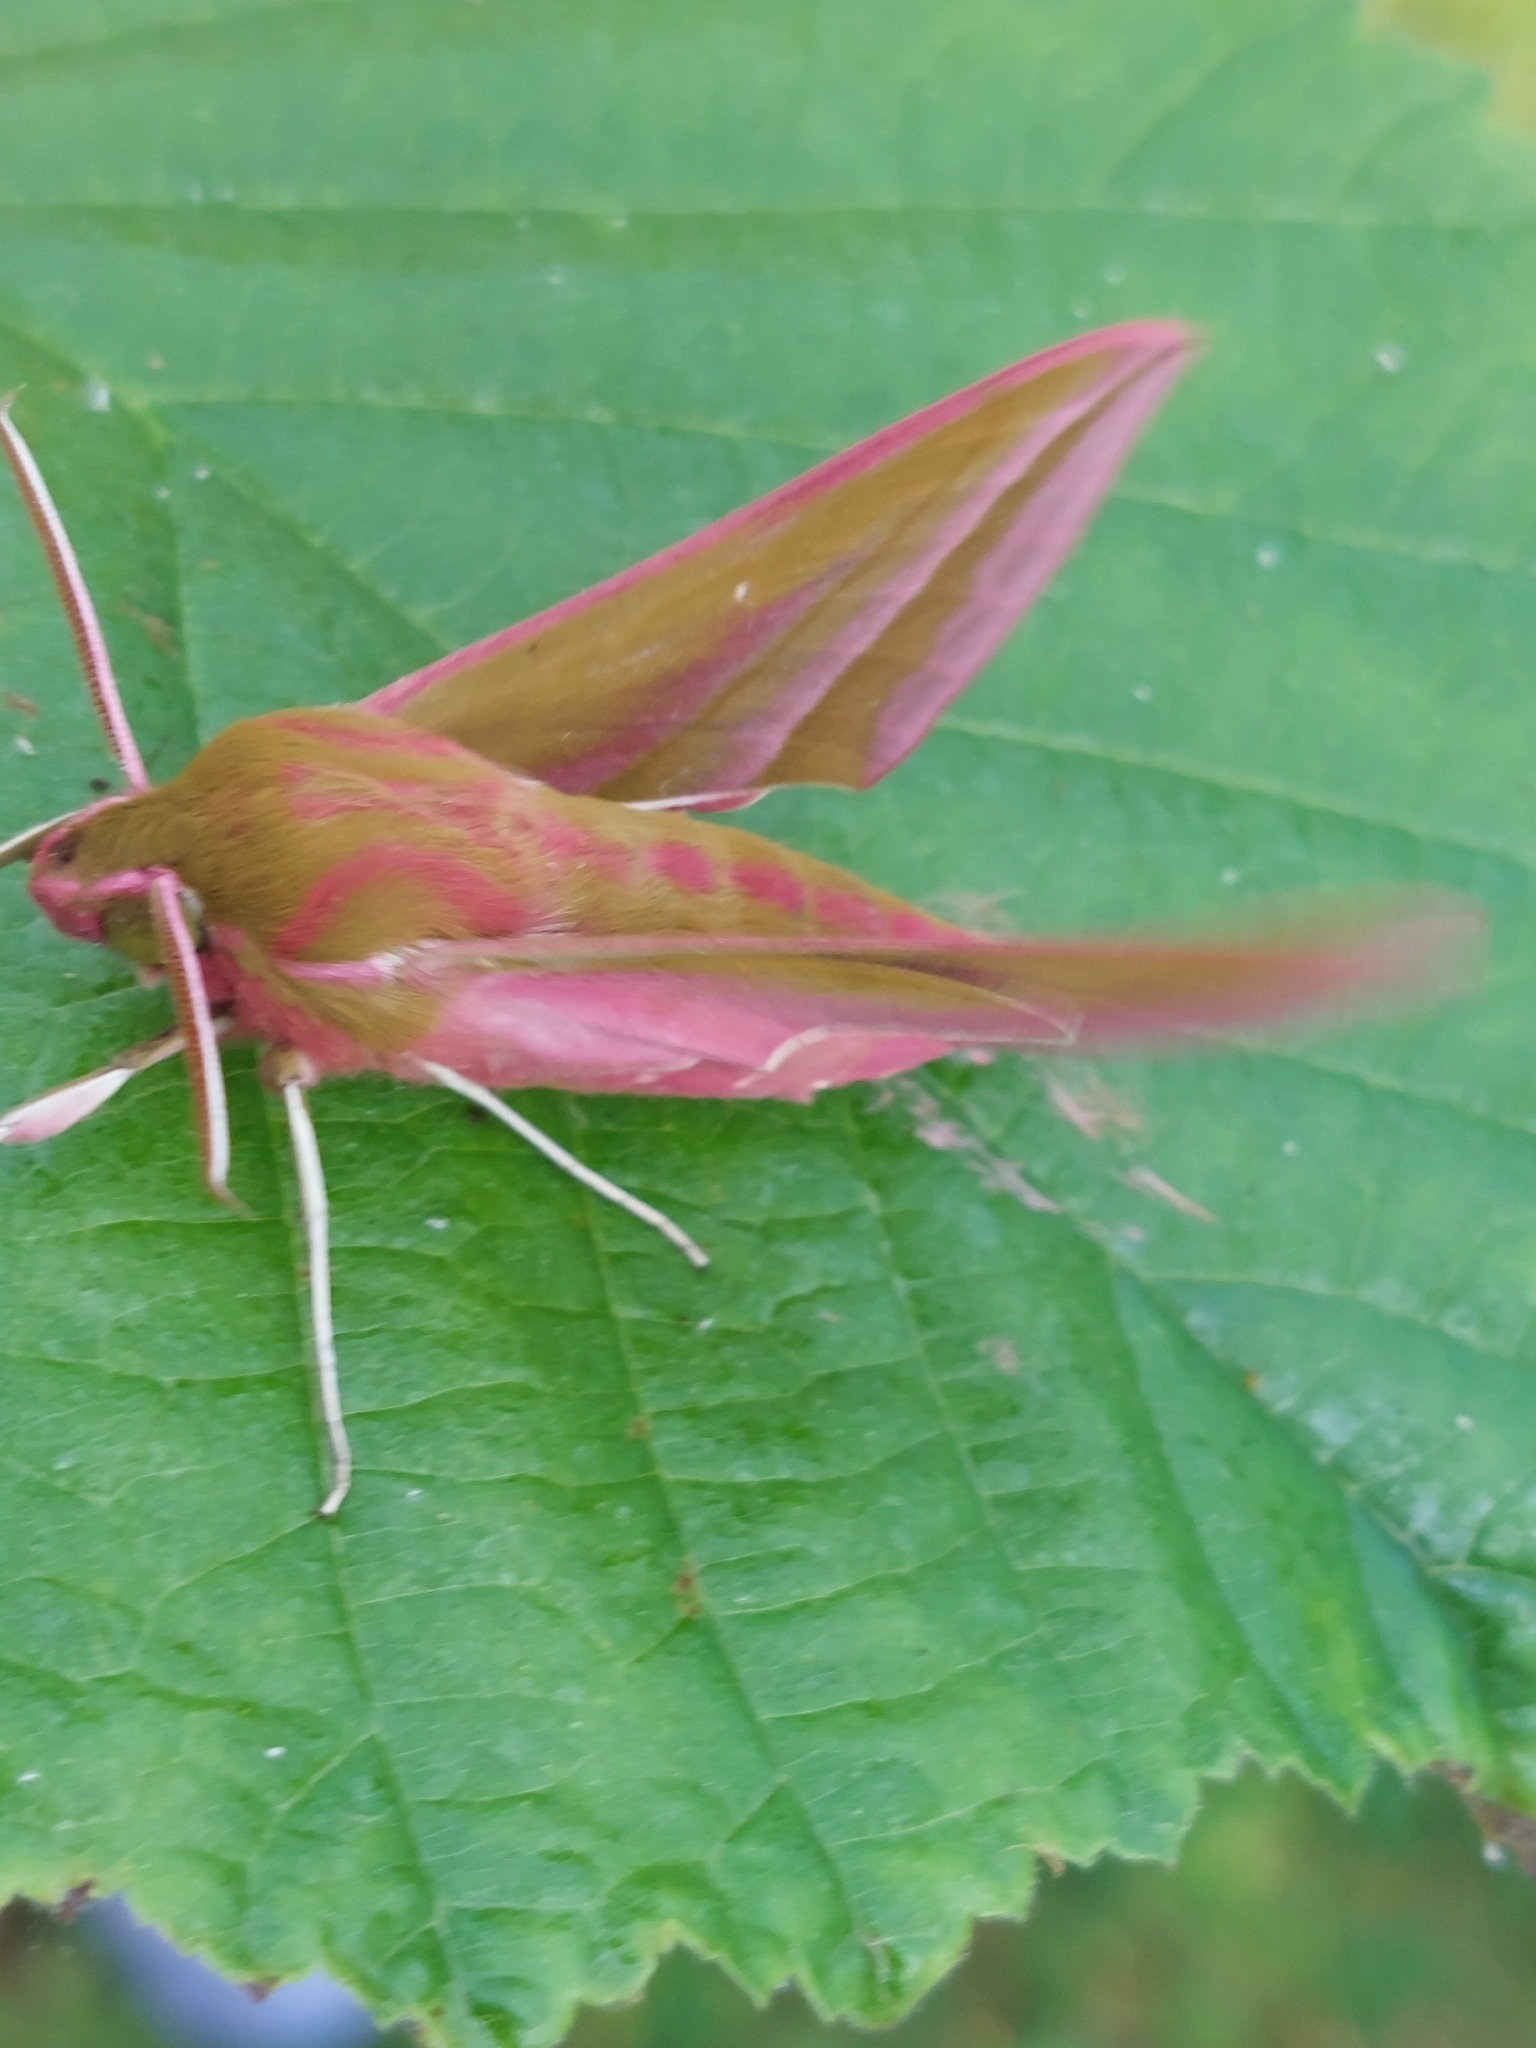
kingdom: Animalia
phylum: Arthropoda
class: Insecta
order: Lepidoptera
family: Sphingidae
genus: Deilephila
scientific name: Deilephila elpenor
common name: Elephant hawk-moth
